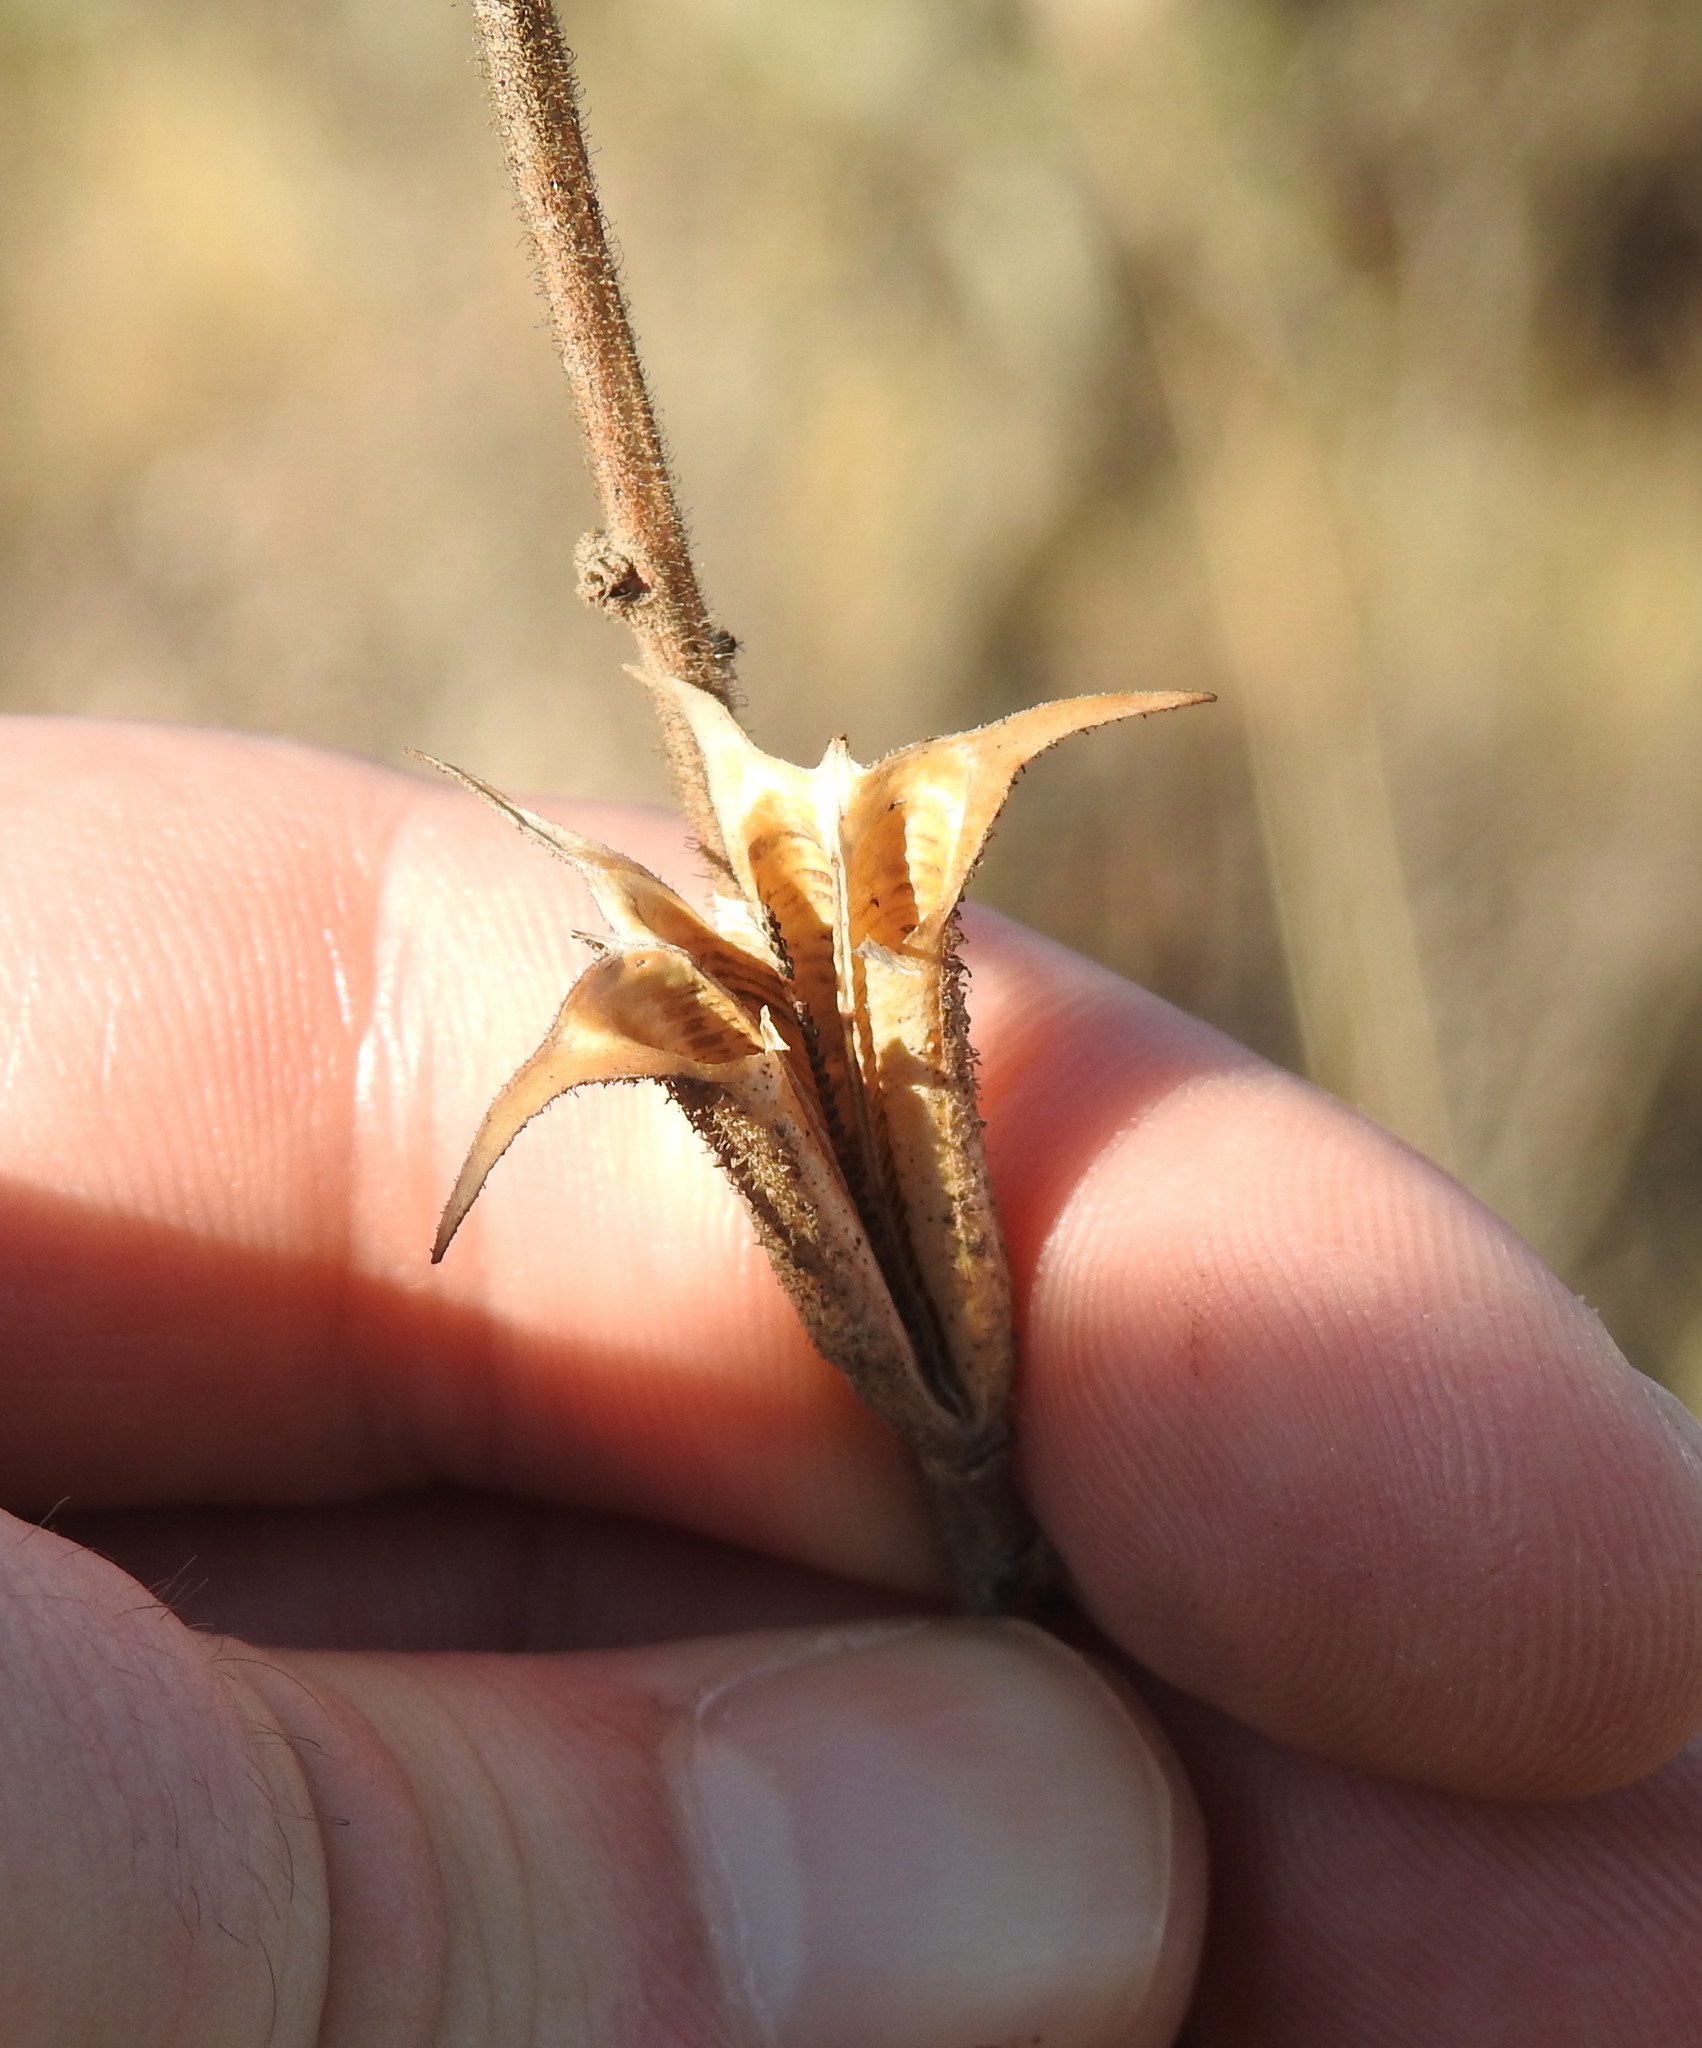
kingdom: Plantae
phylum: Tracheophyta
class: Magnoliopsida
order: Lamiales
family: Pedaliaceae
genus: Sesamum
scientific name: Sesamum trilobum
